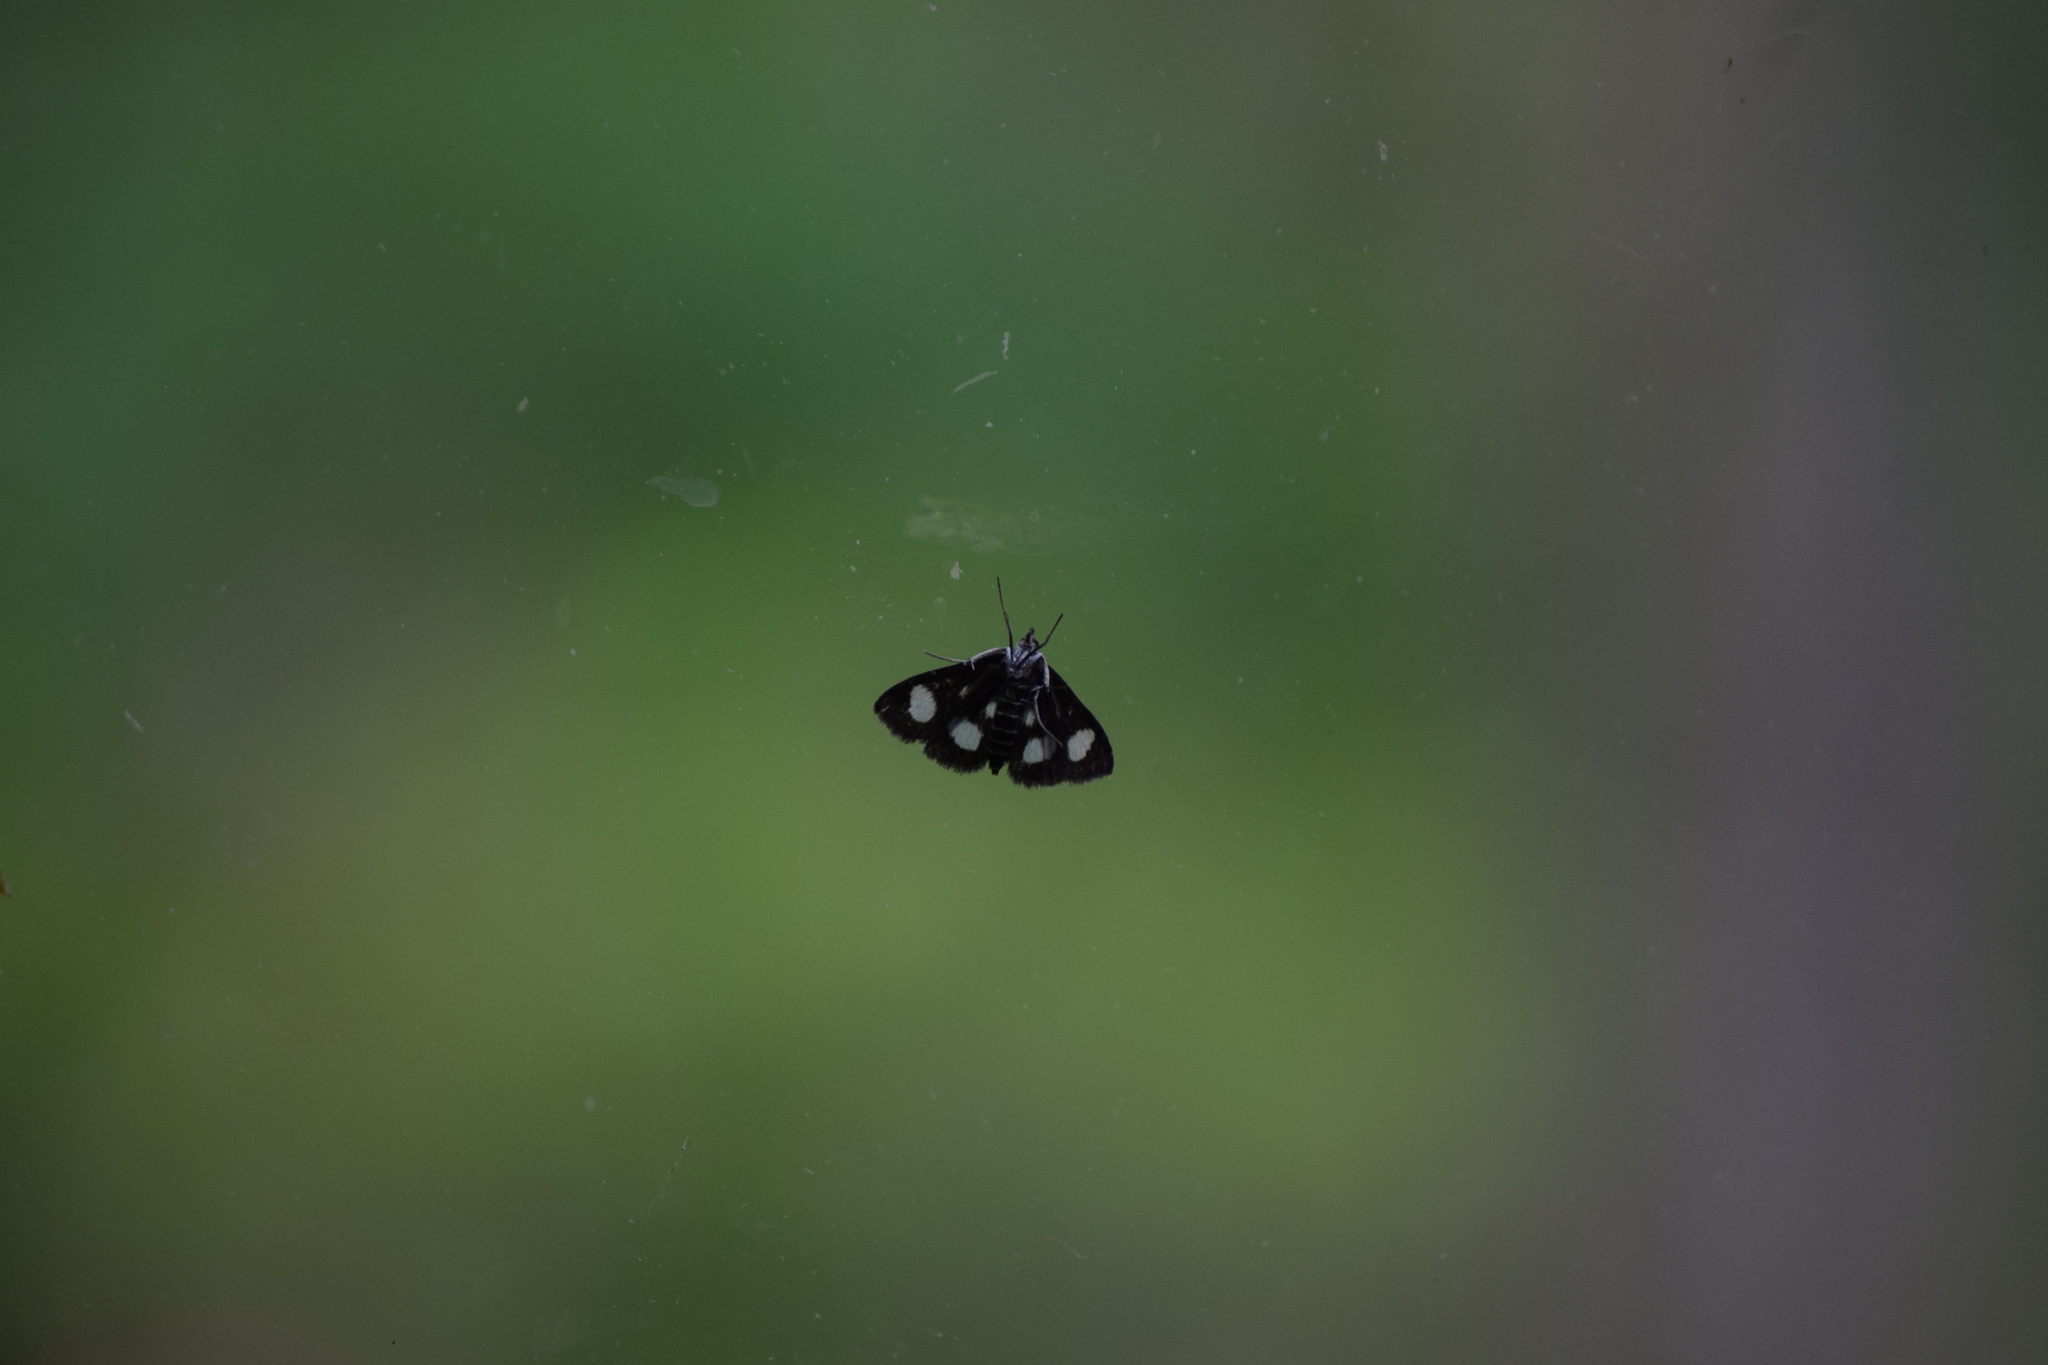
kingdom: Animalia
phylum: Arthropoda
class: Insecta
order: Lepidoptera
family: Crambidae
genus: Anania
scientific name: Anania funebris
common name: White-spotted sable moth
